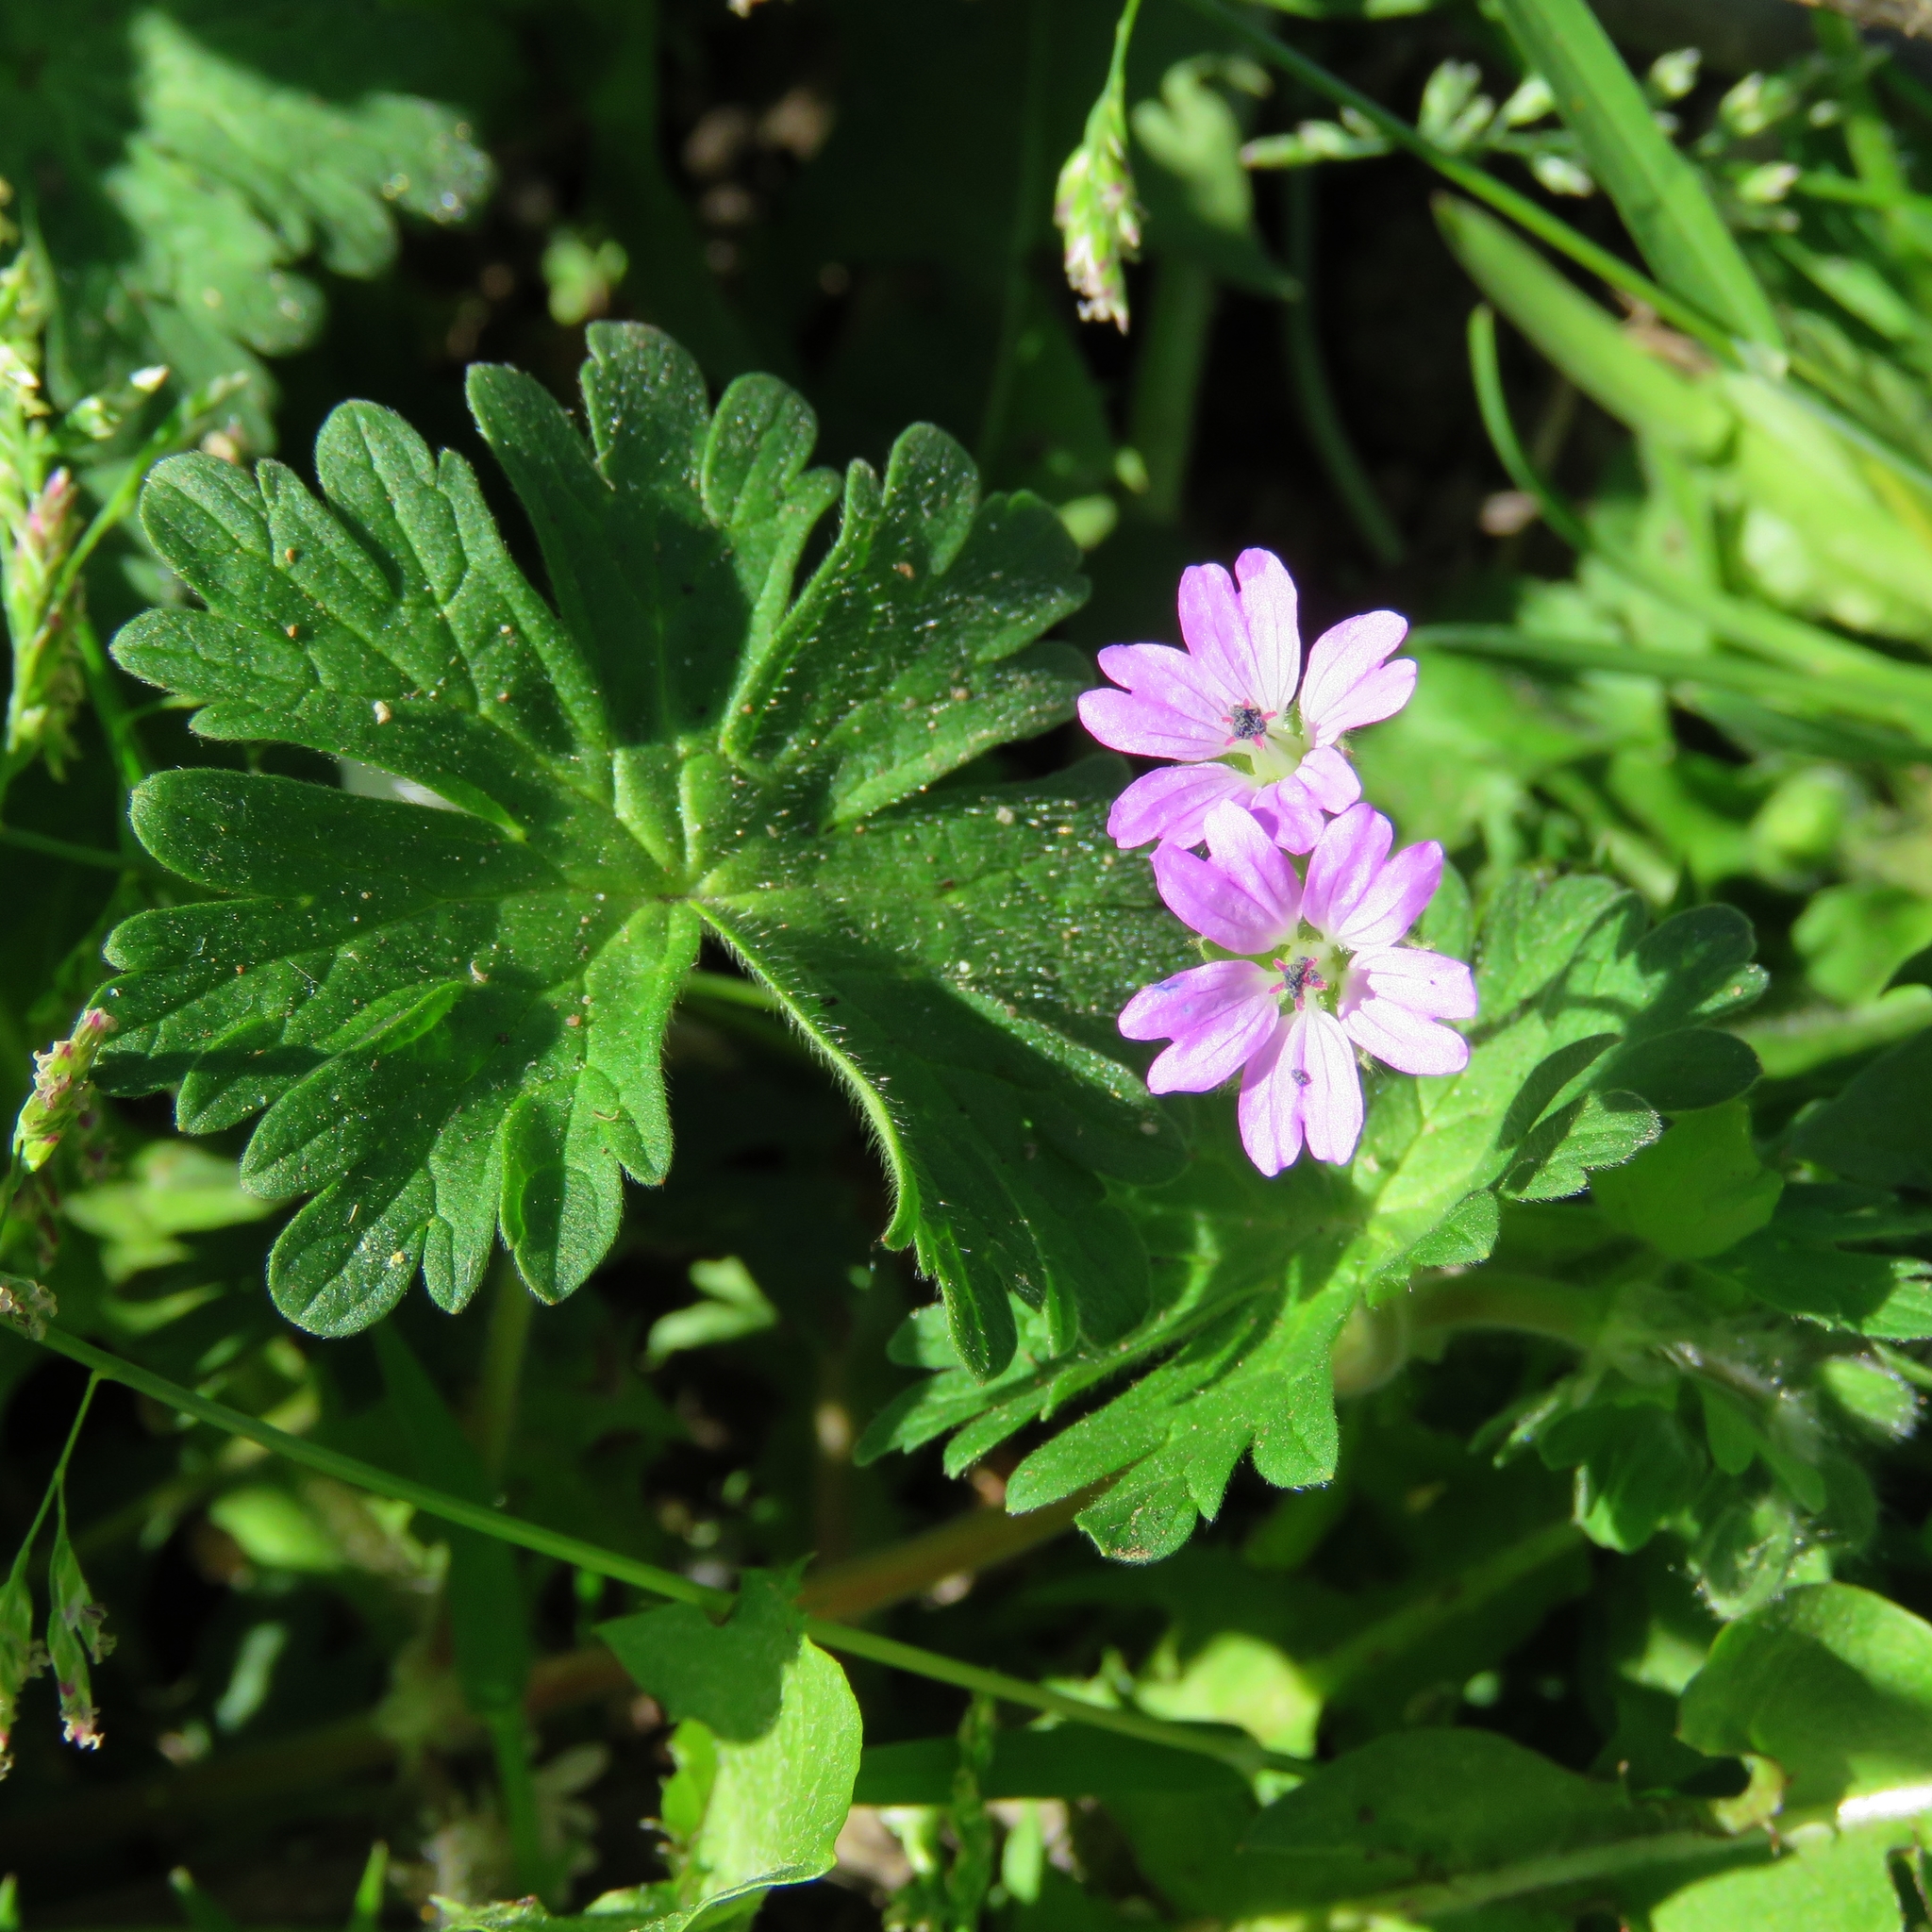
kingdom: Plantae
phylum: Tracheophyta
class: Magnoliopsida
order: Geraniales
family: Geraniaceae
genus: Geranium
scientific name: Geranium molle
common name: Dove's-foot crane's-bill
